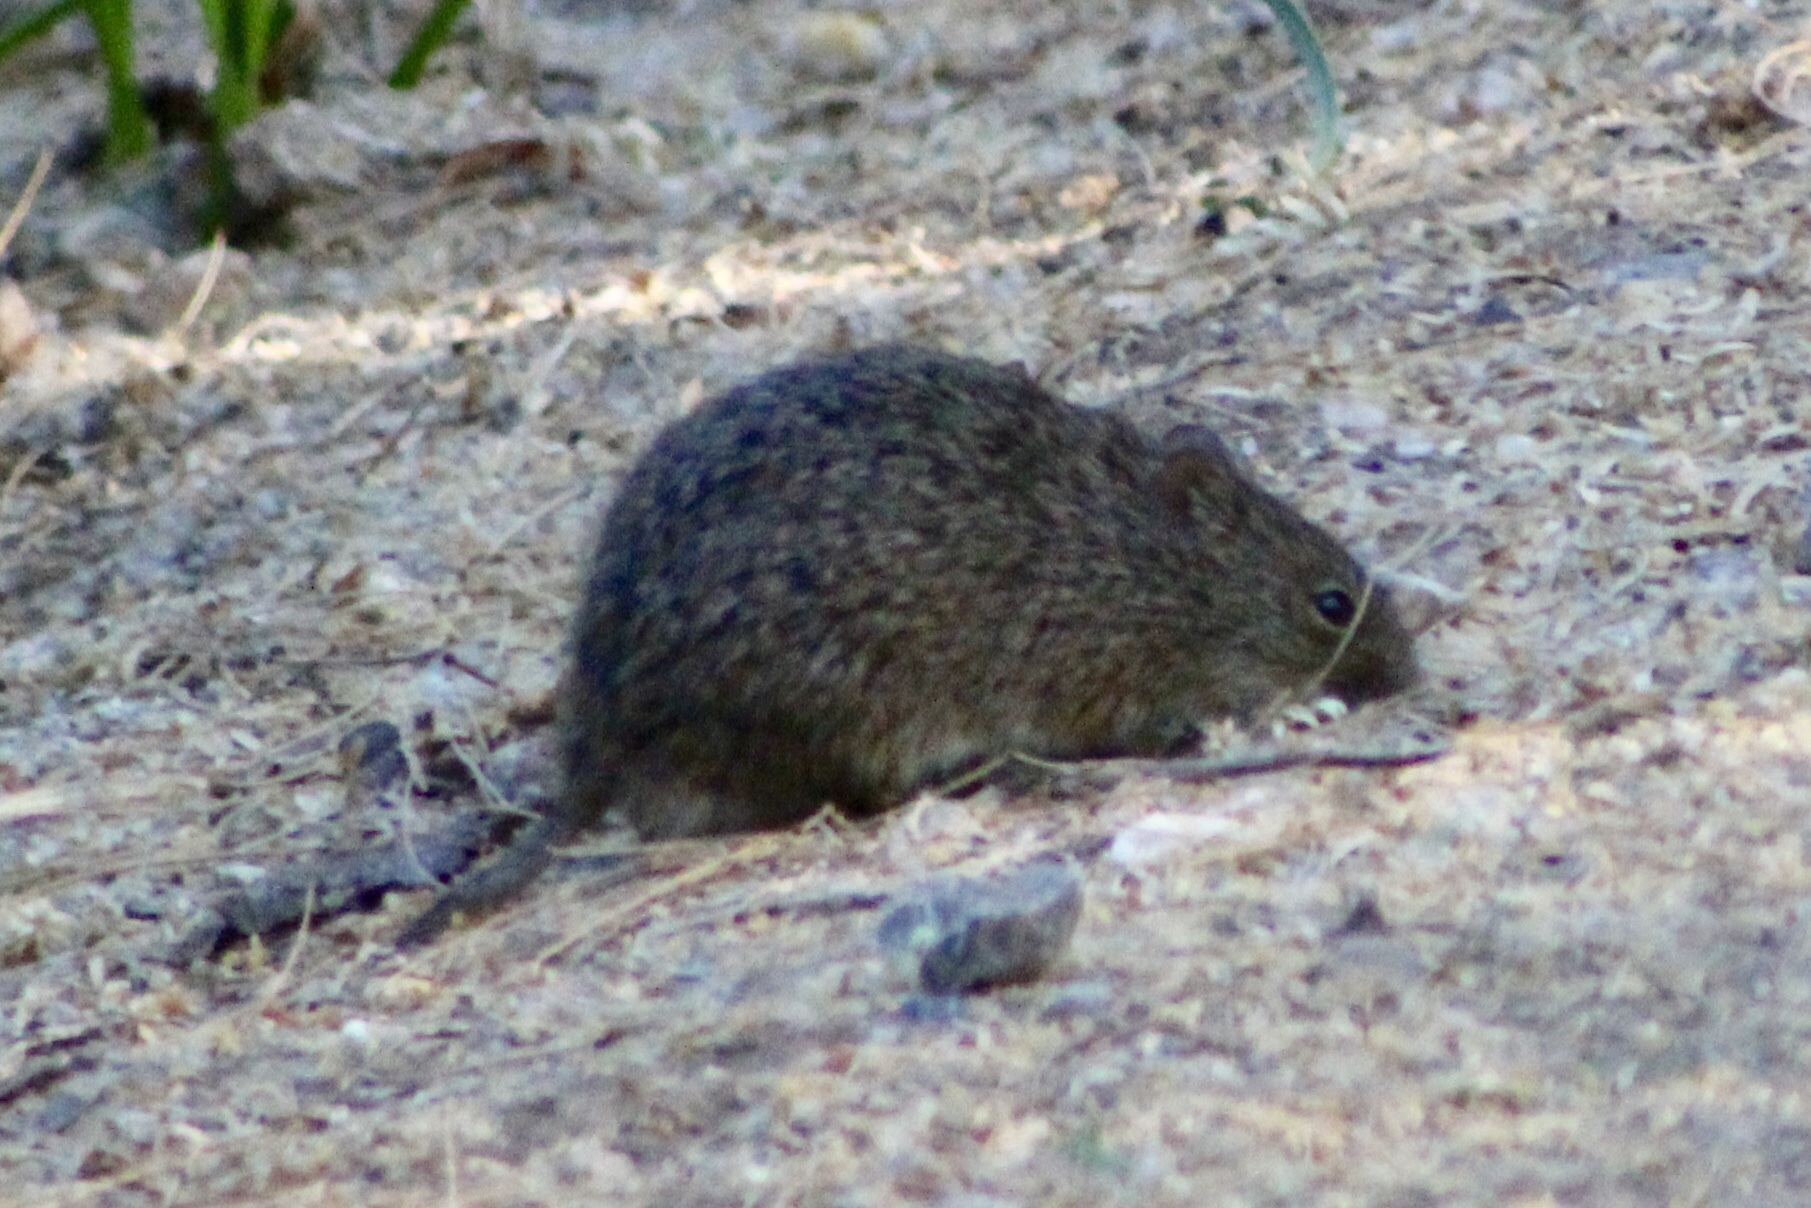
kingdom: Animalia
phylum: Chordata
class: Mammalia
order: Rodentia
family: Cricetidae
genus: Sigmodon
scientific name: Sigmodon arizonae
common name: Arizona cotton rat
